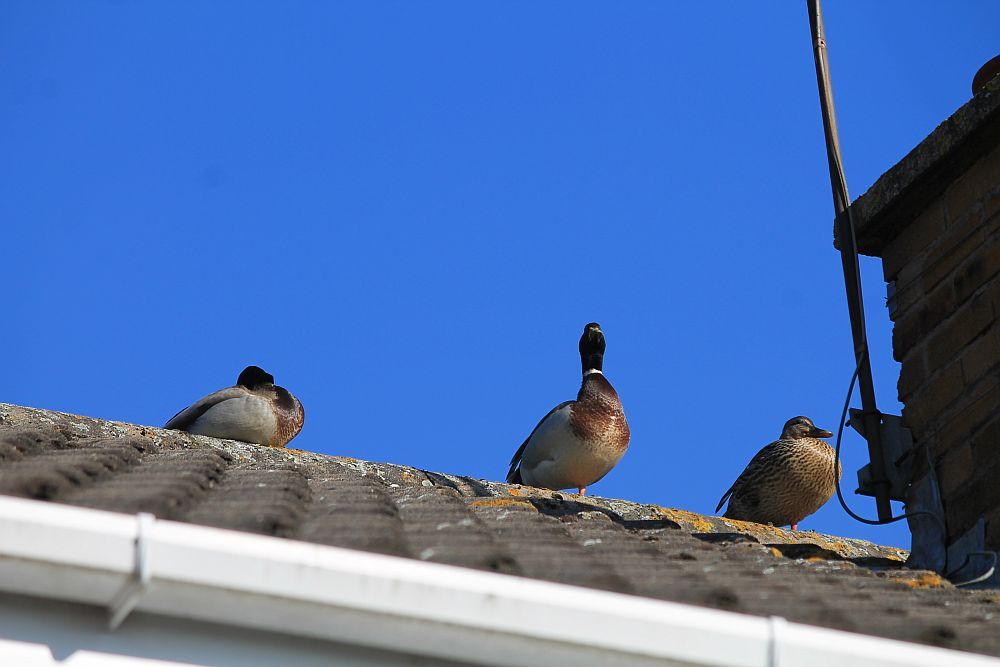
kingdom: Animalia
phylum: Chordata
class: Aves
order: Anseriformes
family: Anatidae
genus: Anas
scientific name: Anas platyrhynchos
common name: Mallard
